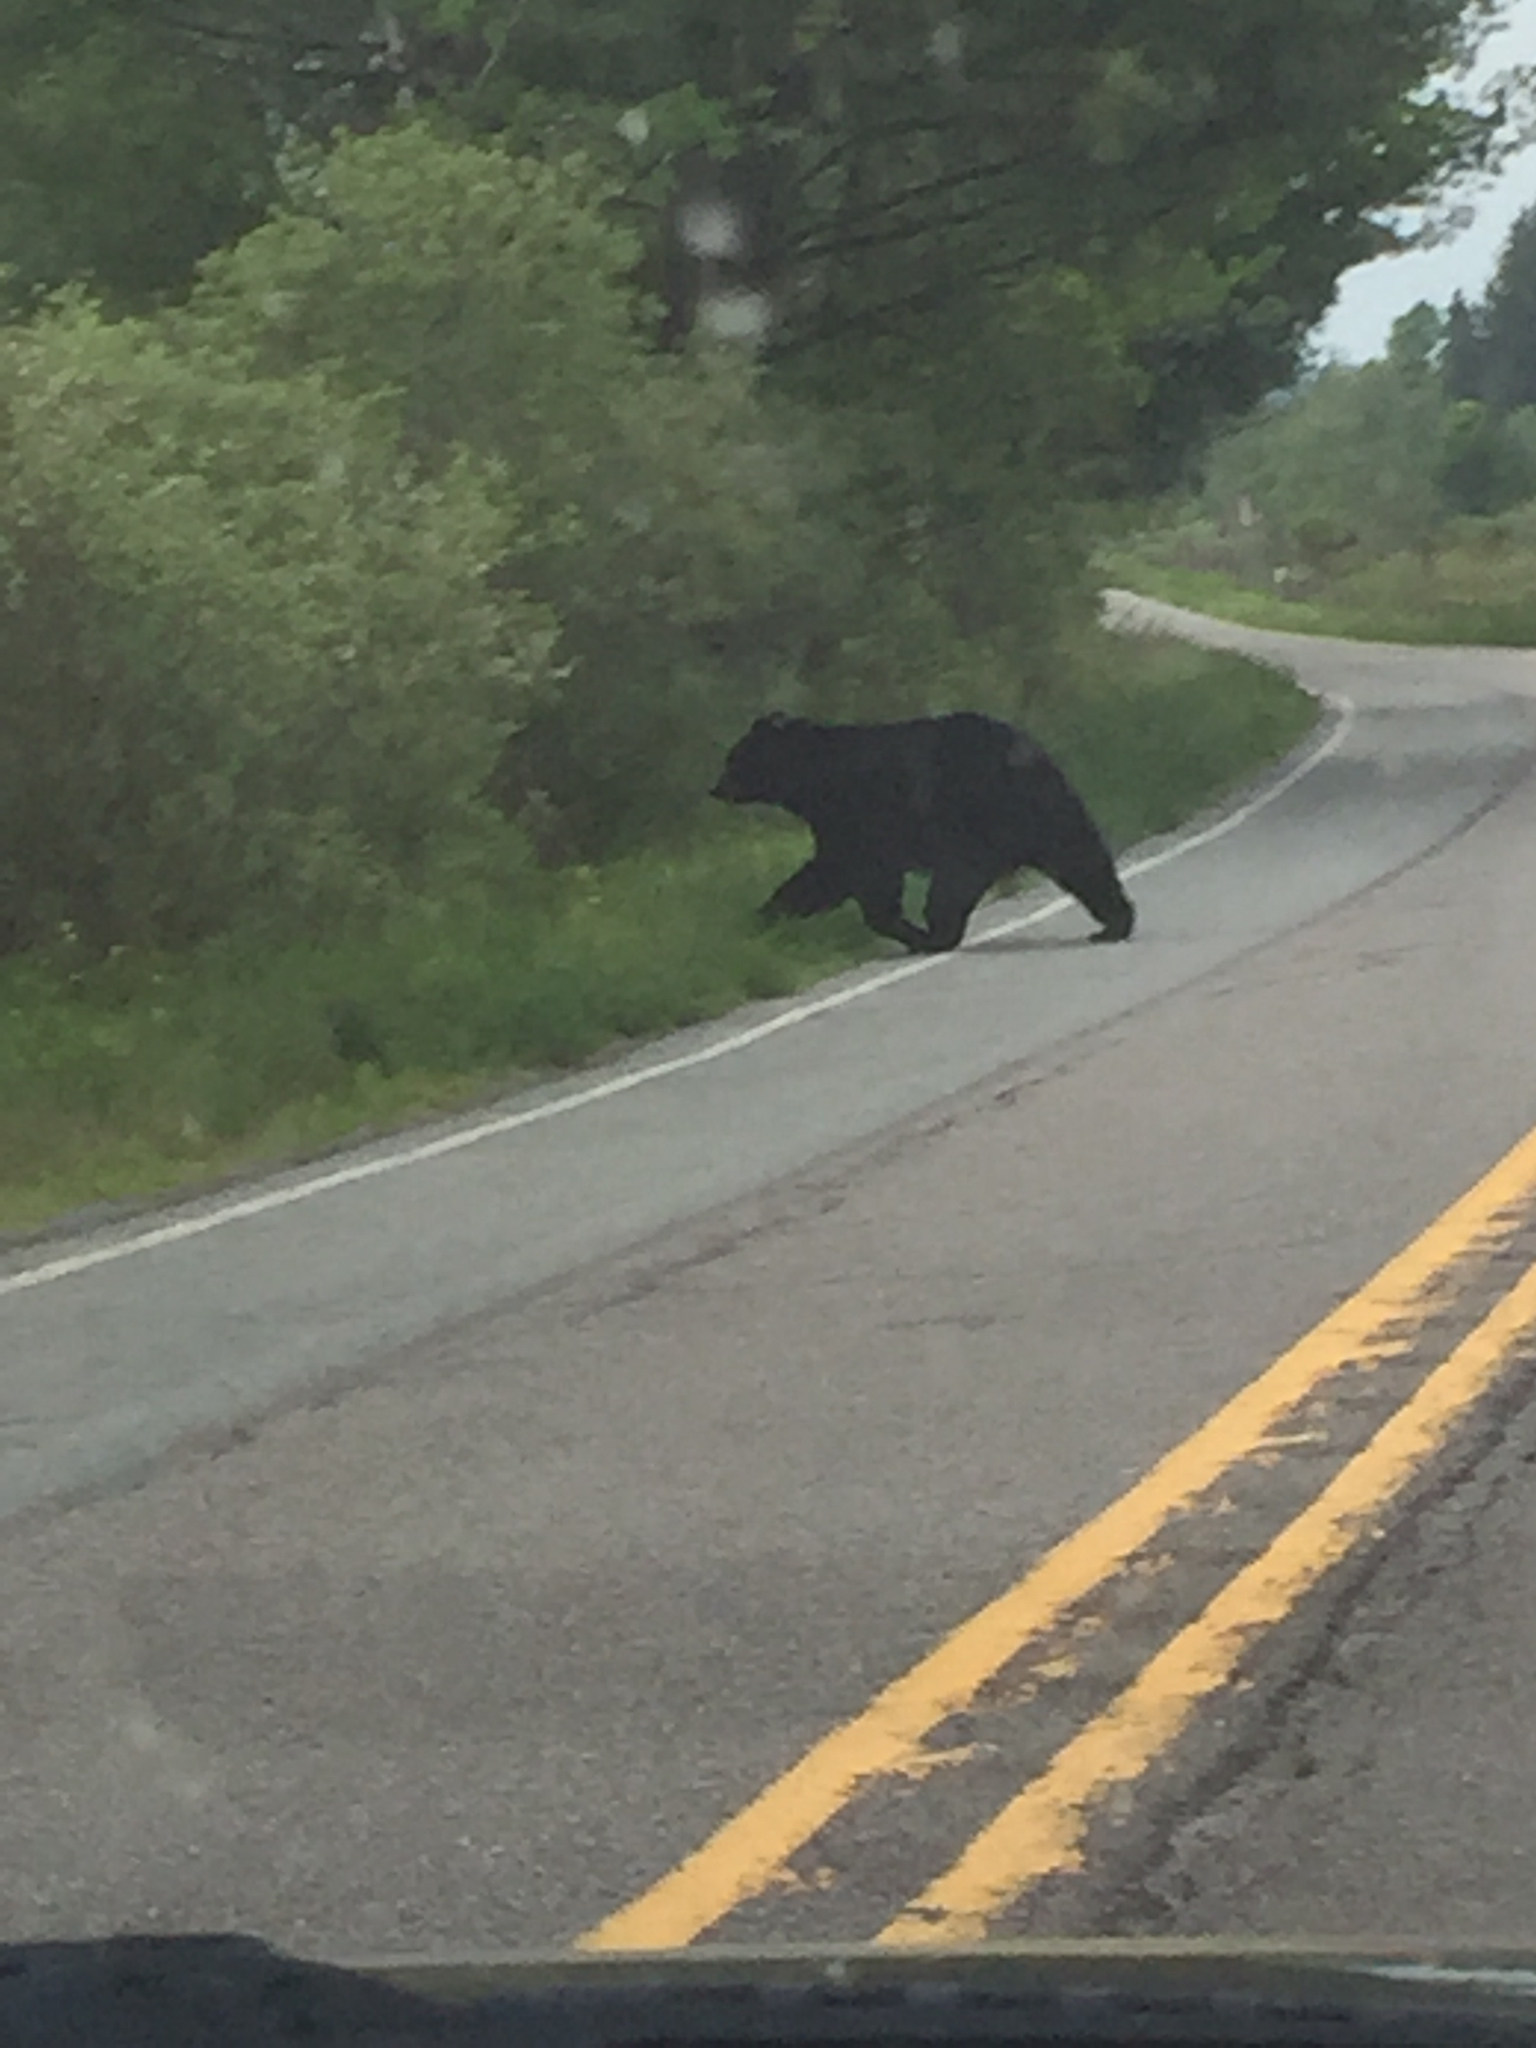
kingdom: Animalia
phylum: Chordata
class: Mammalia
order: Carnivora
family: Ursidae
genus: Ursus
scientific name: Ursus americanus
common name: American black bear
